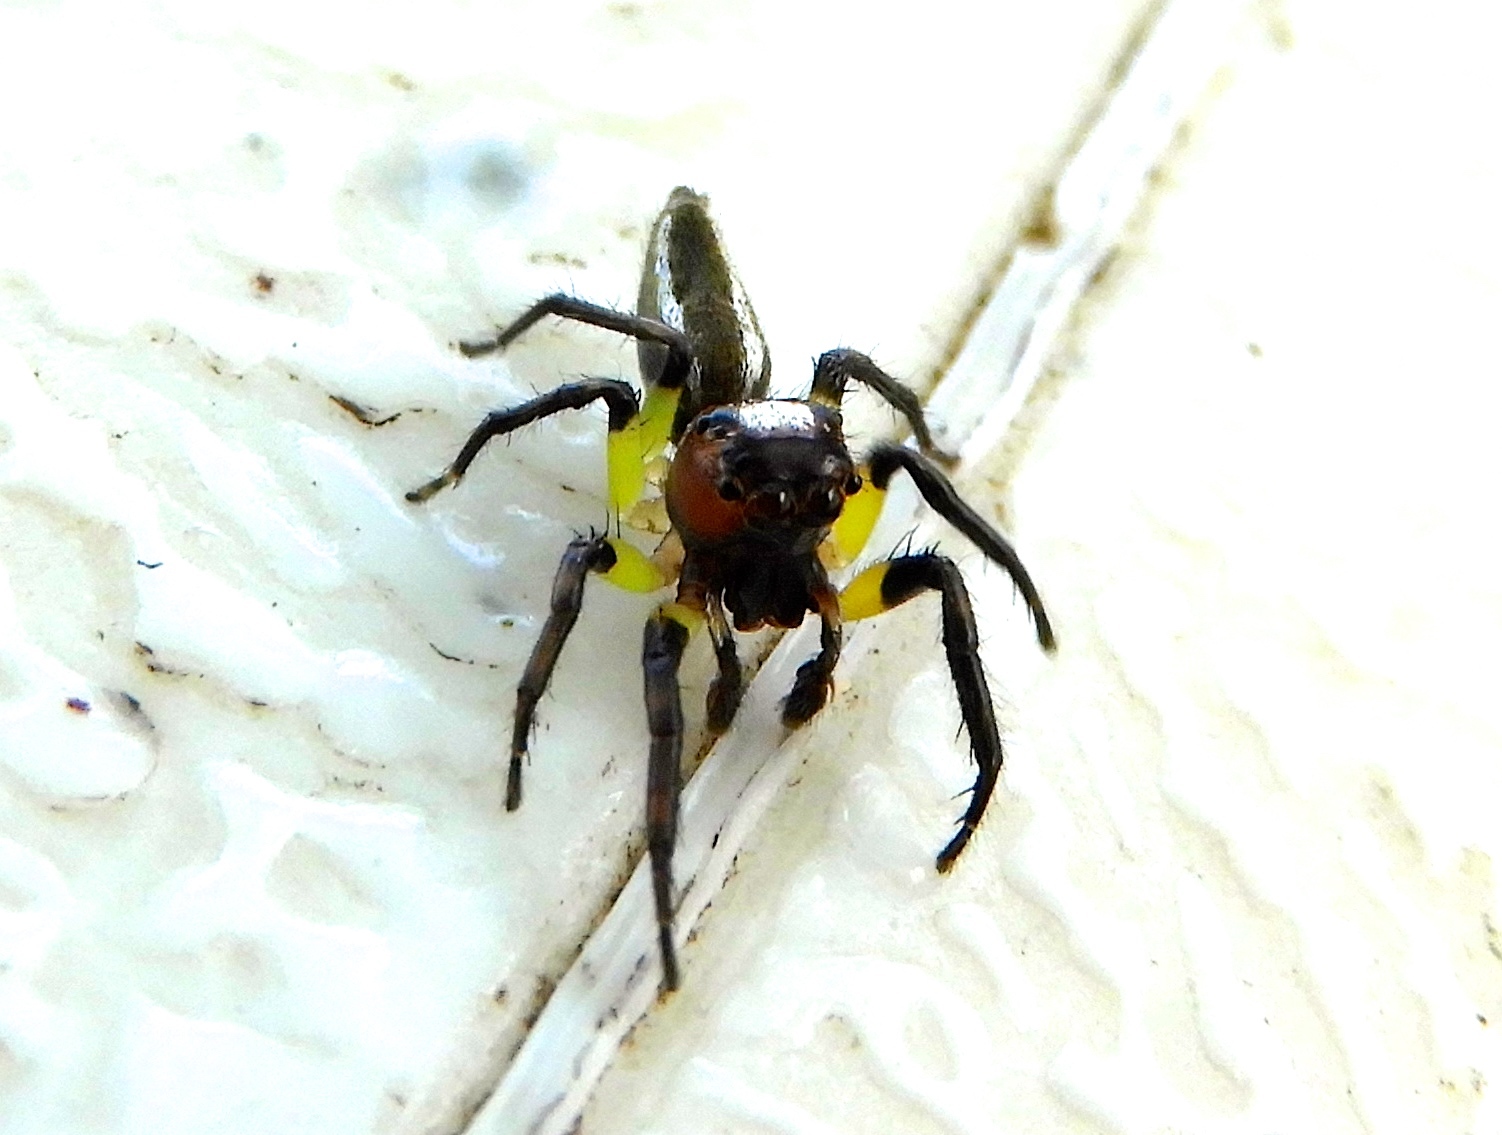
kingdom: Animalia
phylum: Arthropoda
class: Arachnida
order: Araneae
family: Salticidae
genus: Colonus
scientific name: Colonus
